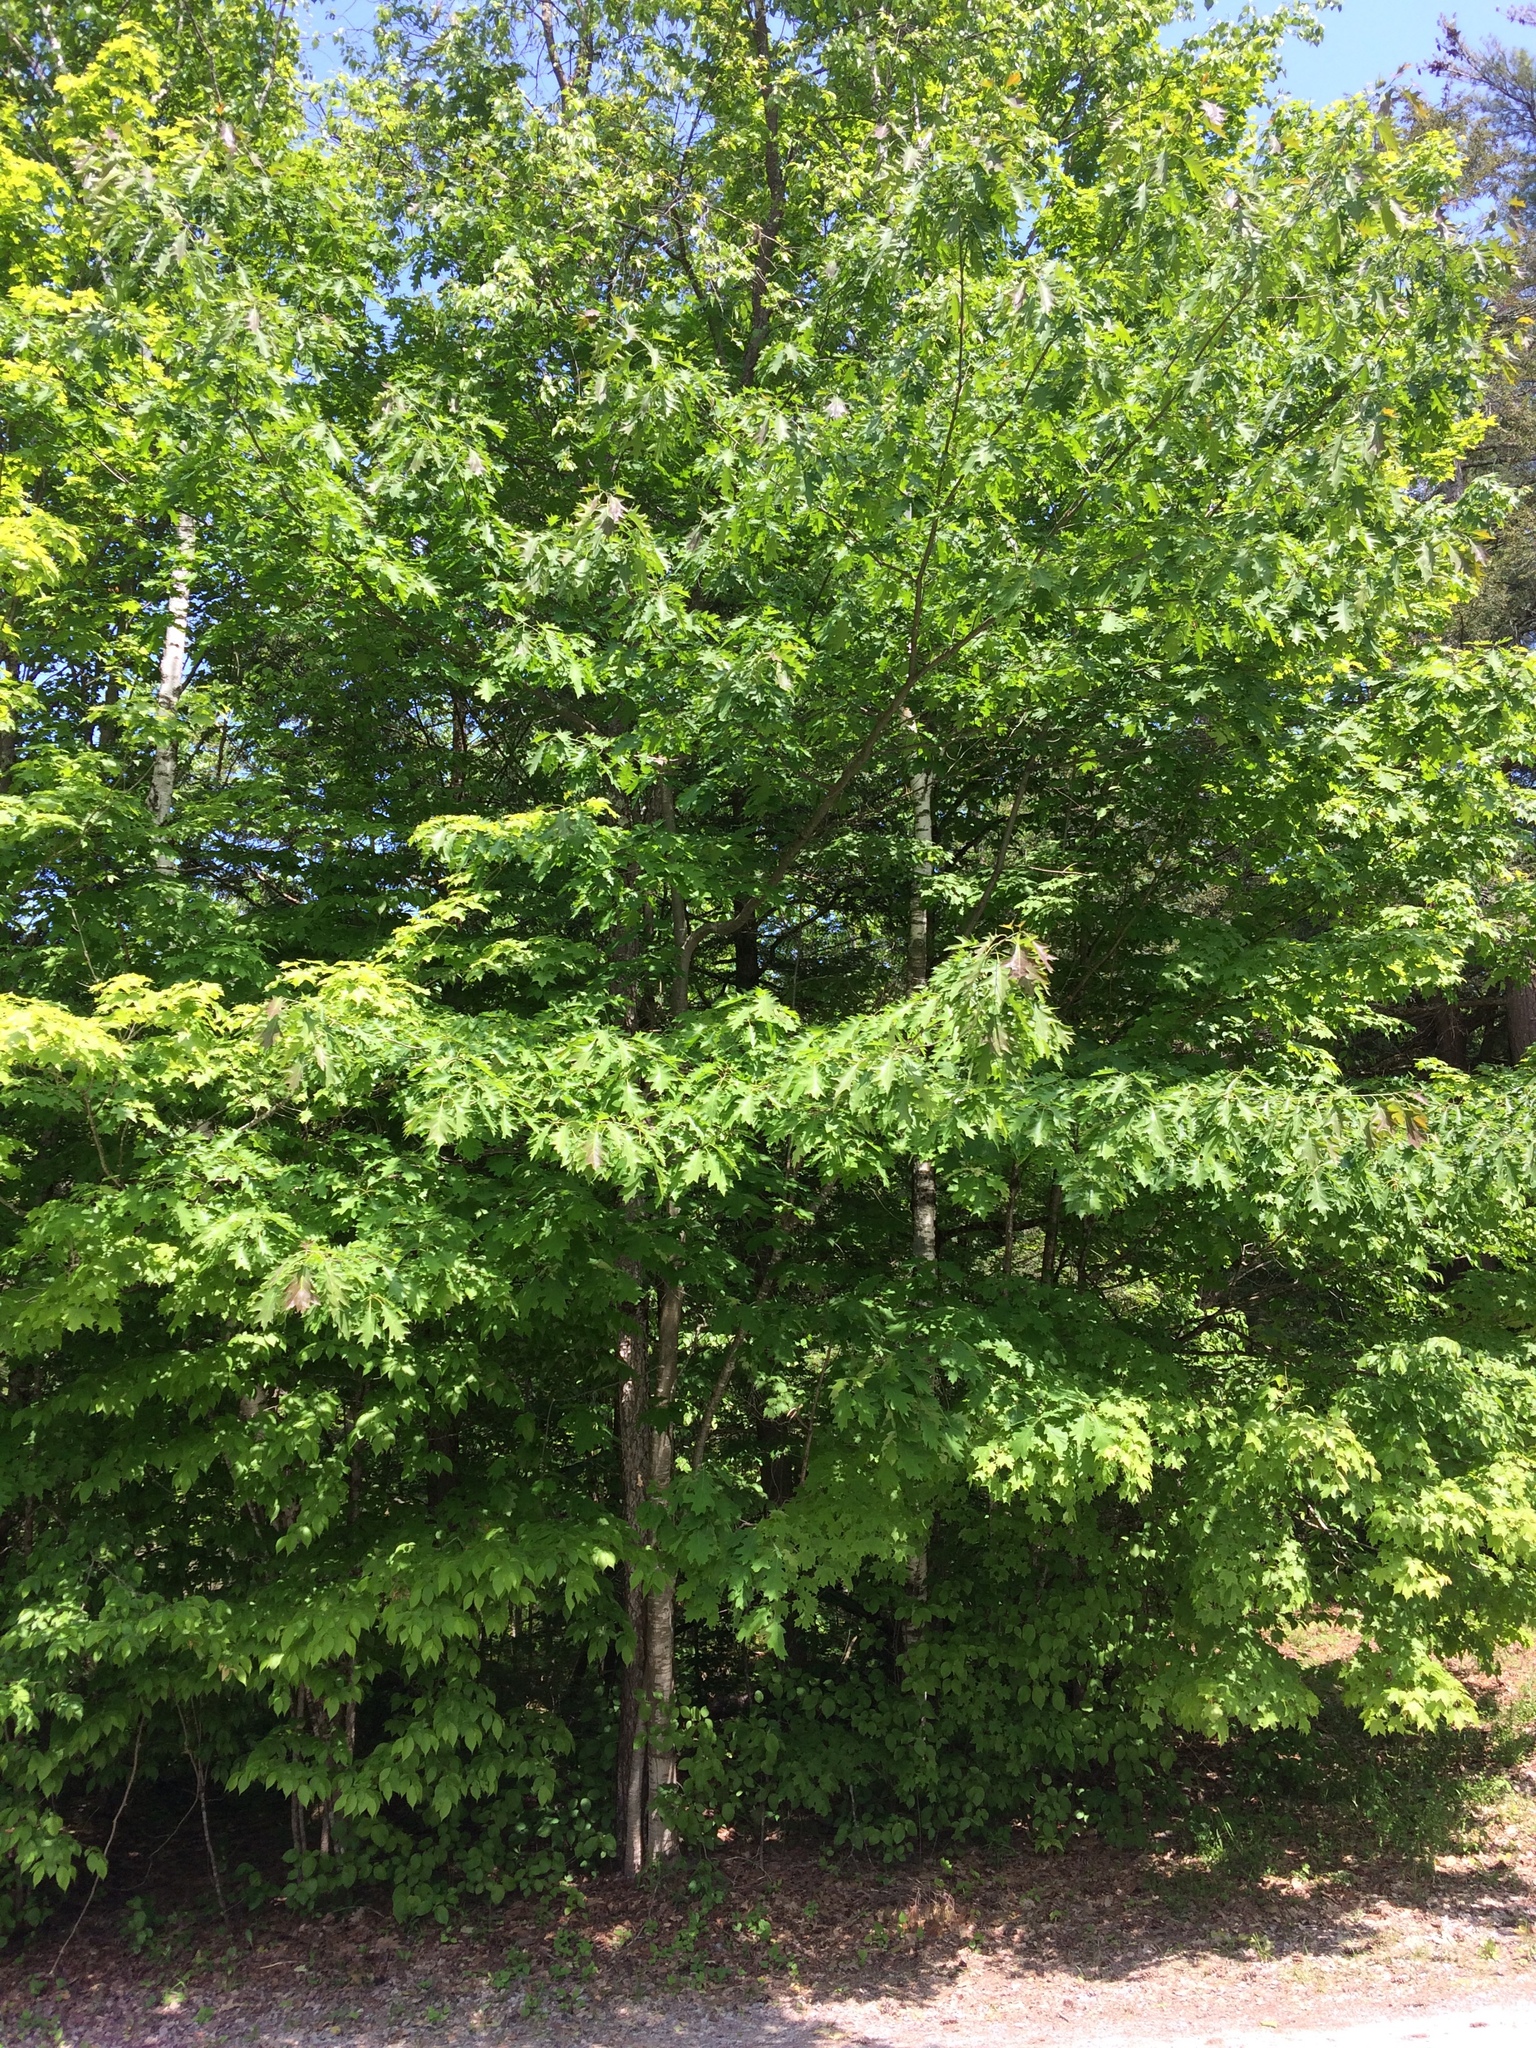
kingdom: Plantae
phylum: Tracheophyta
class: Magnoliopsida
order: Fagales
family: Fagaceae
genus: Quercus
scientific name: Quercus rubra
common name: Red oak
